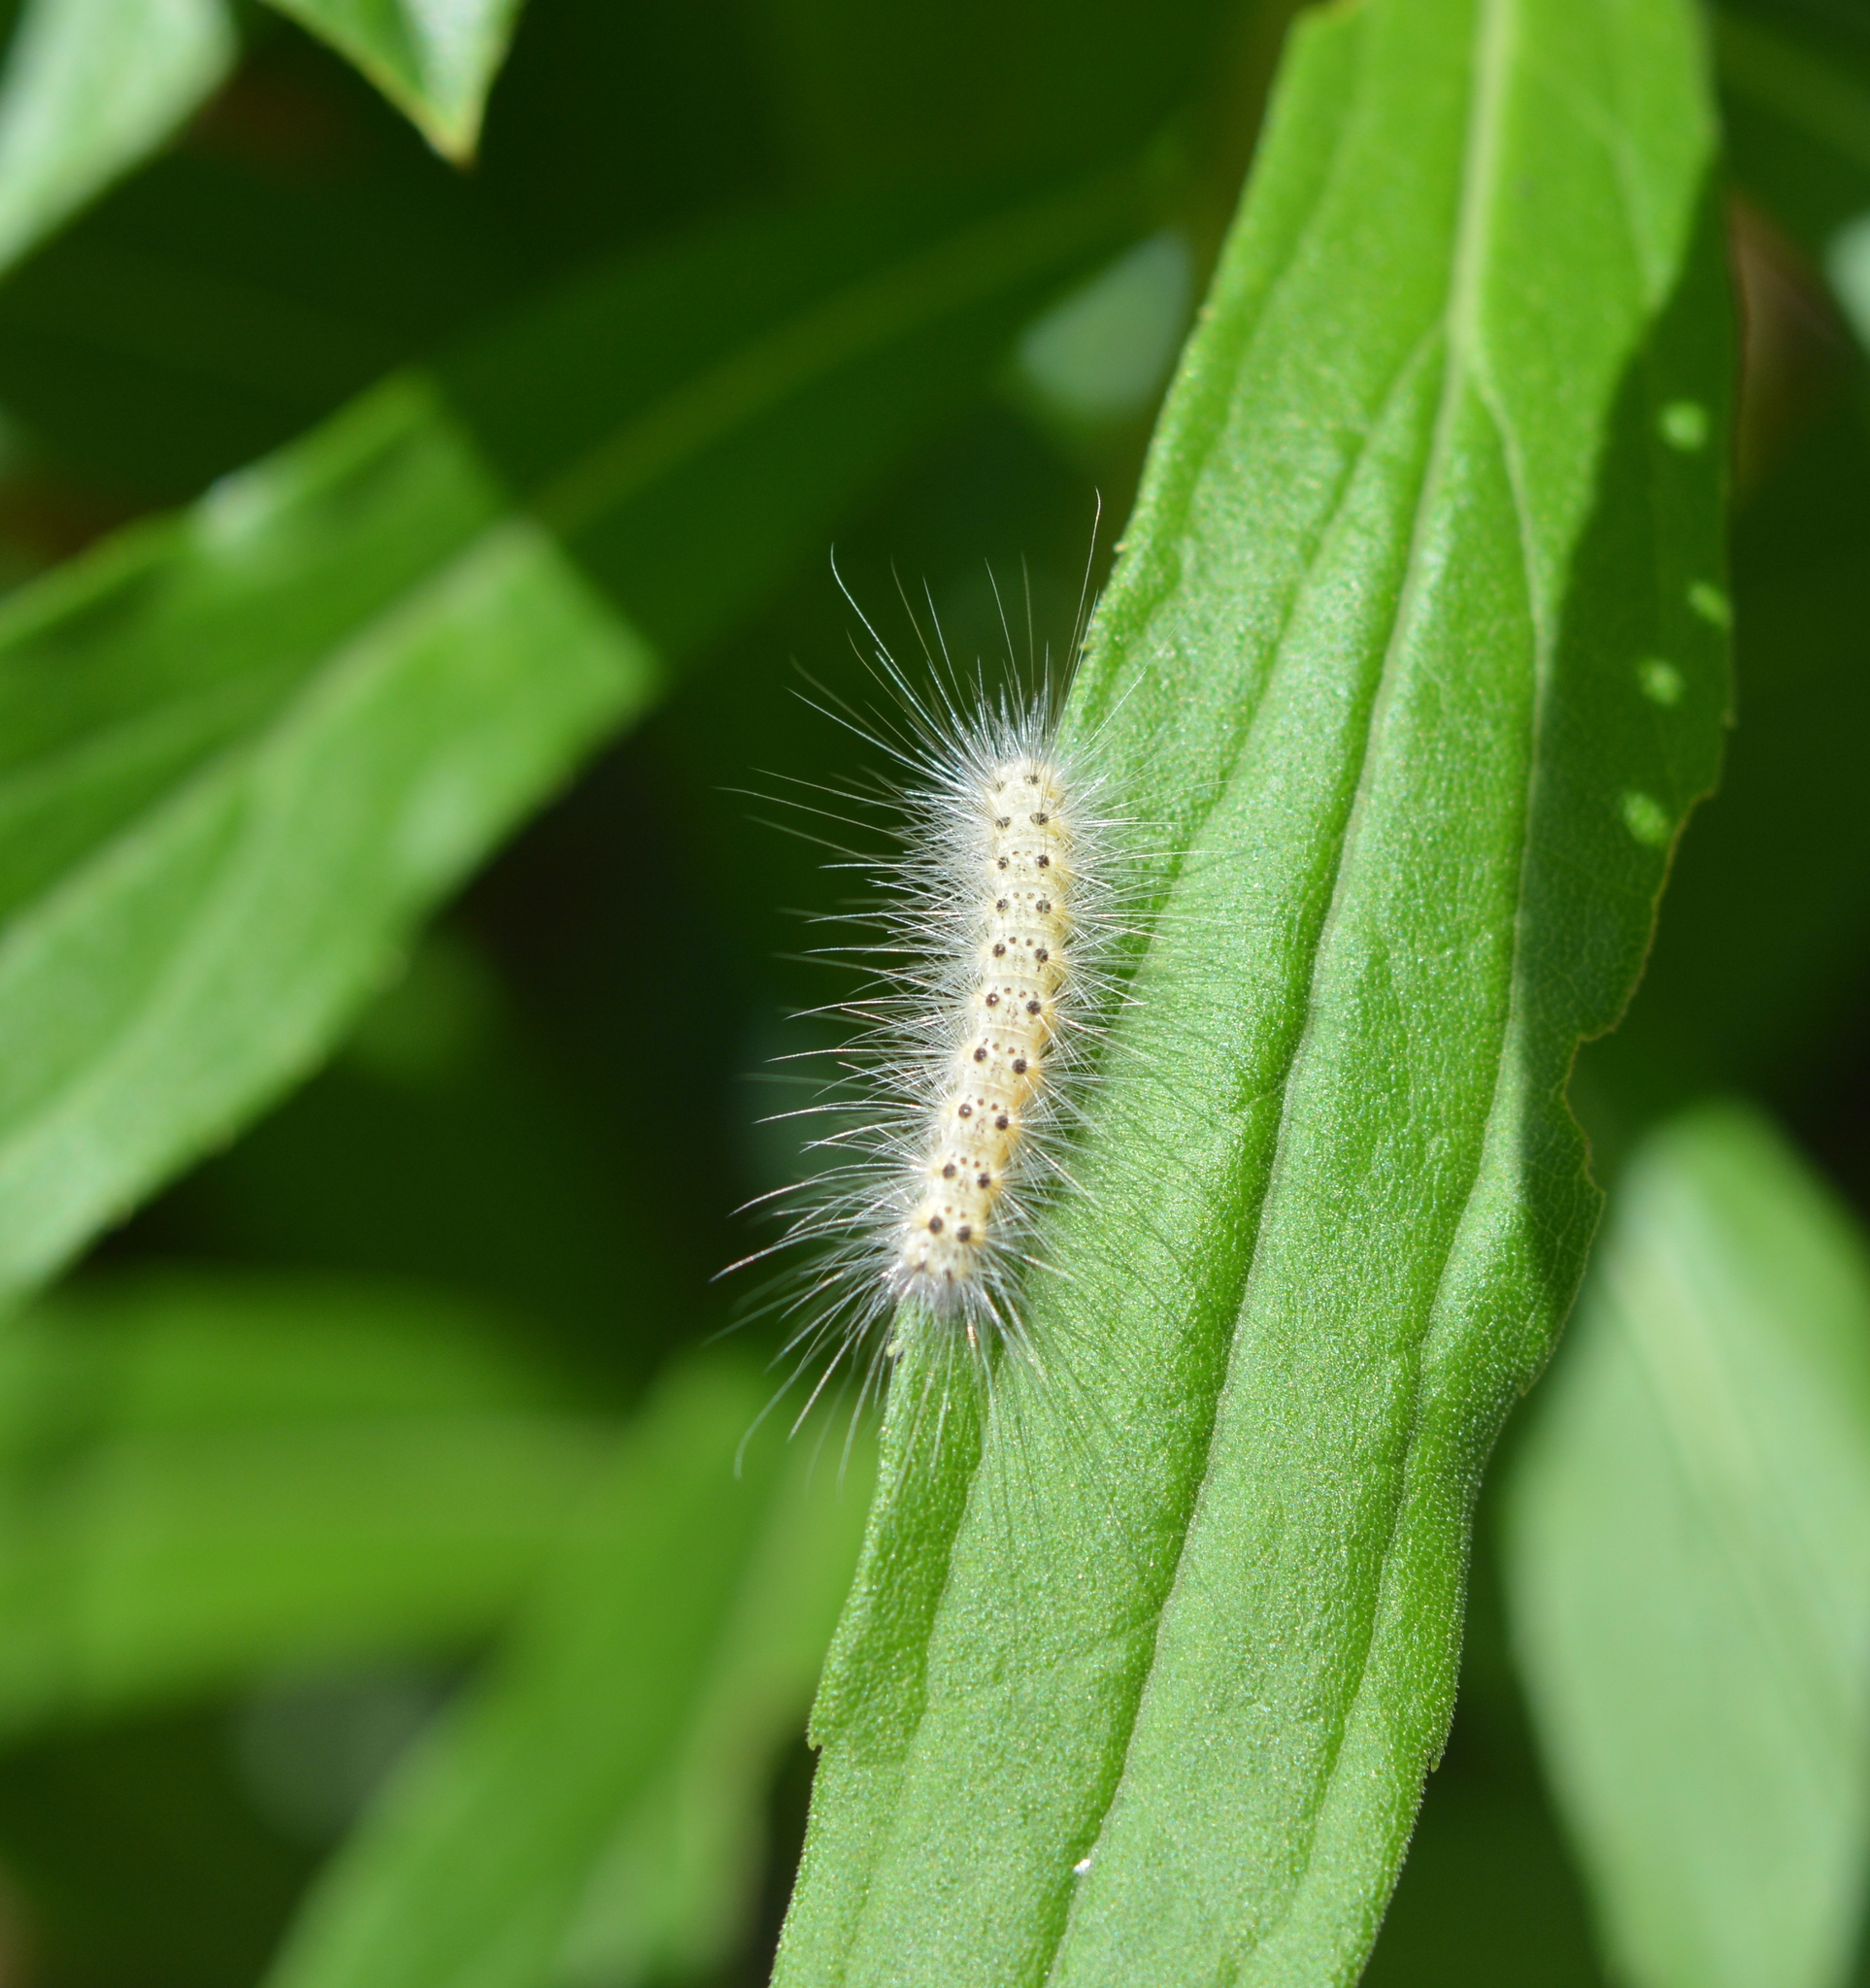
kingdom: Animalia
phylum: Arthropoda
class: Insecta
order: Lepidoptera
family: Erebidae
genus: Hyphantria
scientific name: Hyphantria cunea
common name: American white moth
